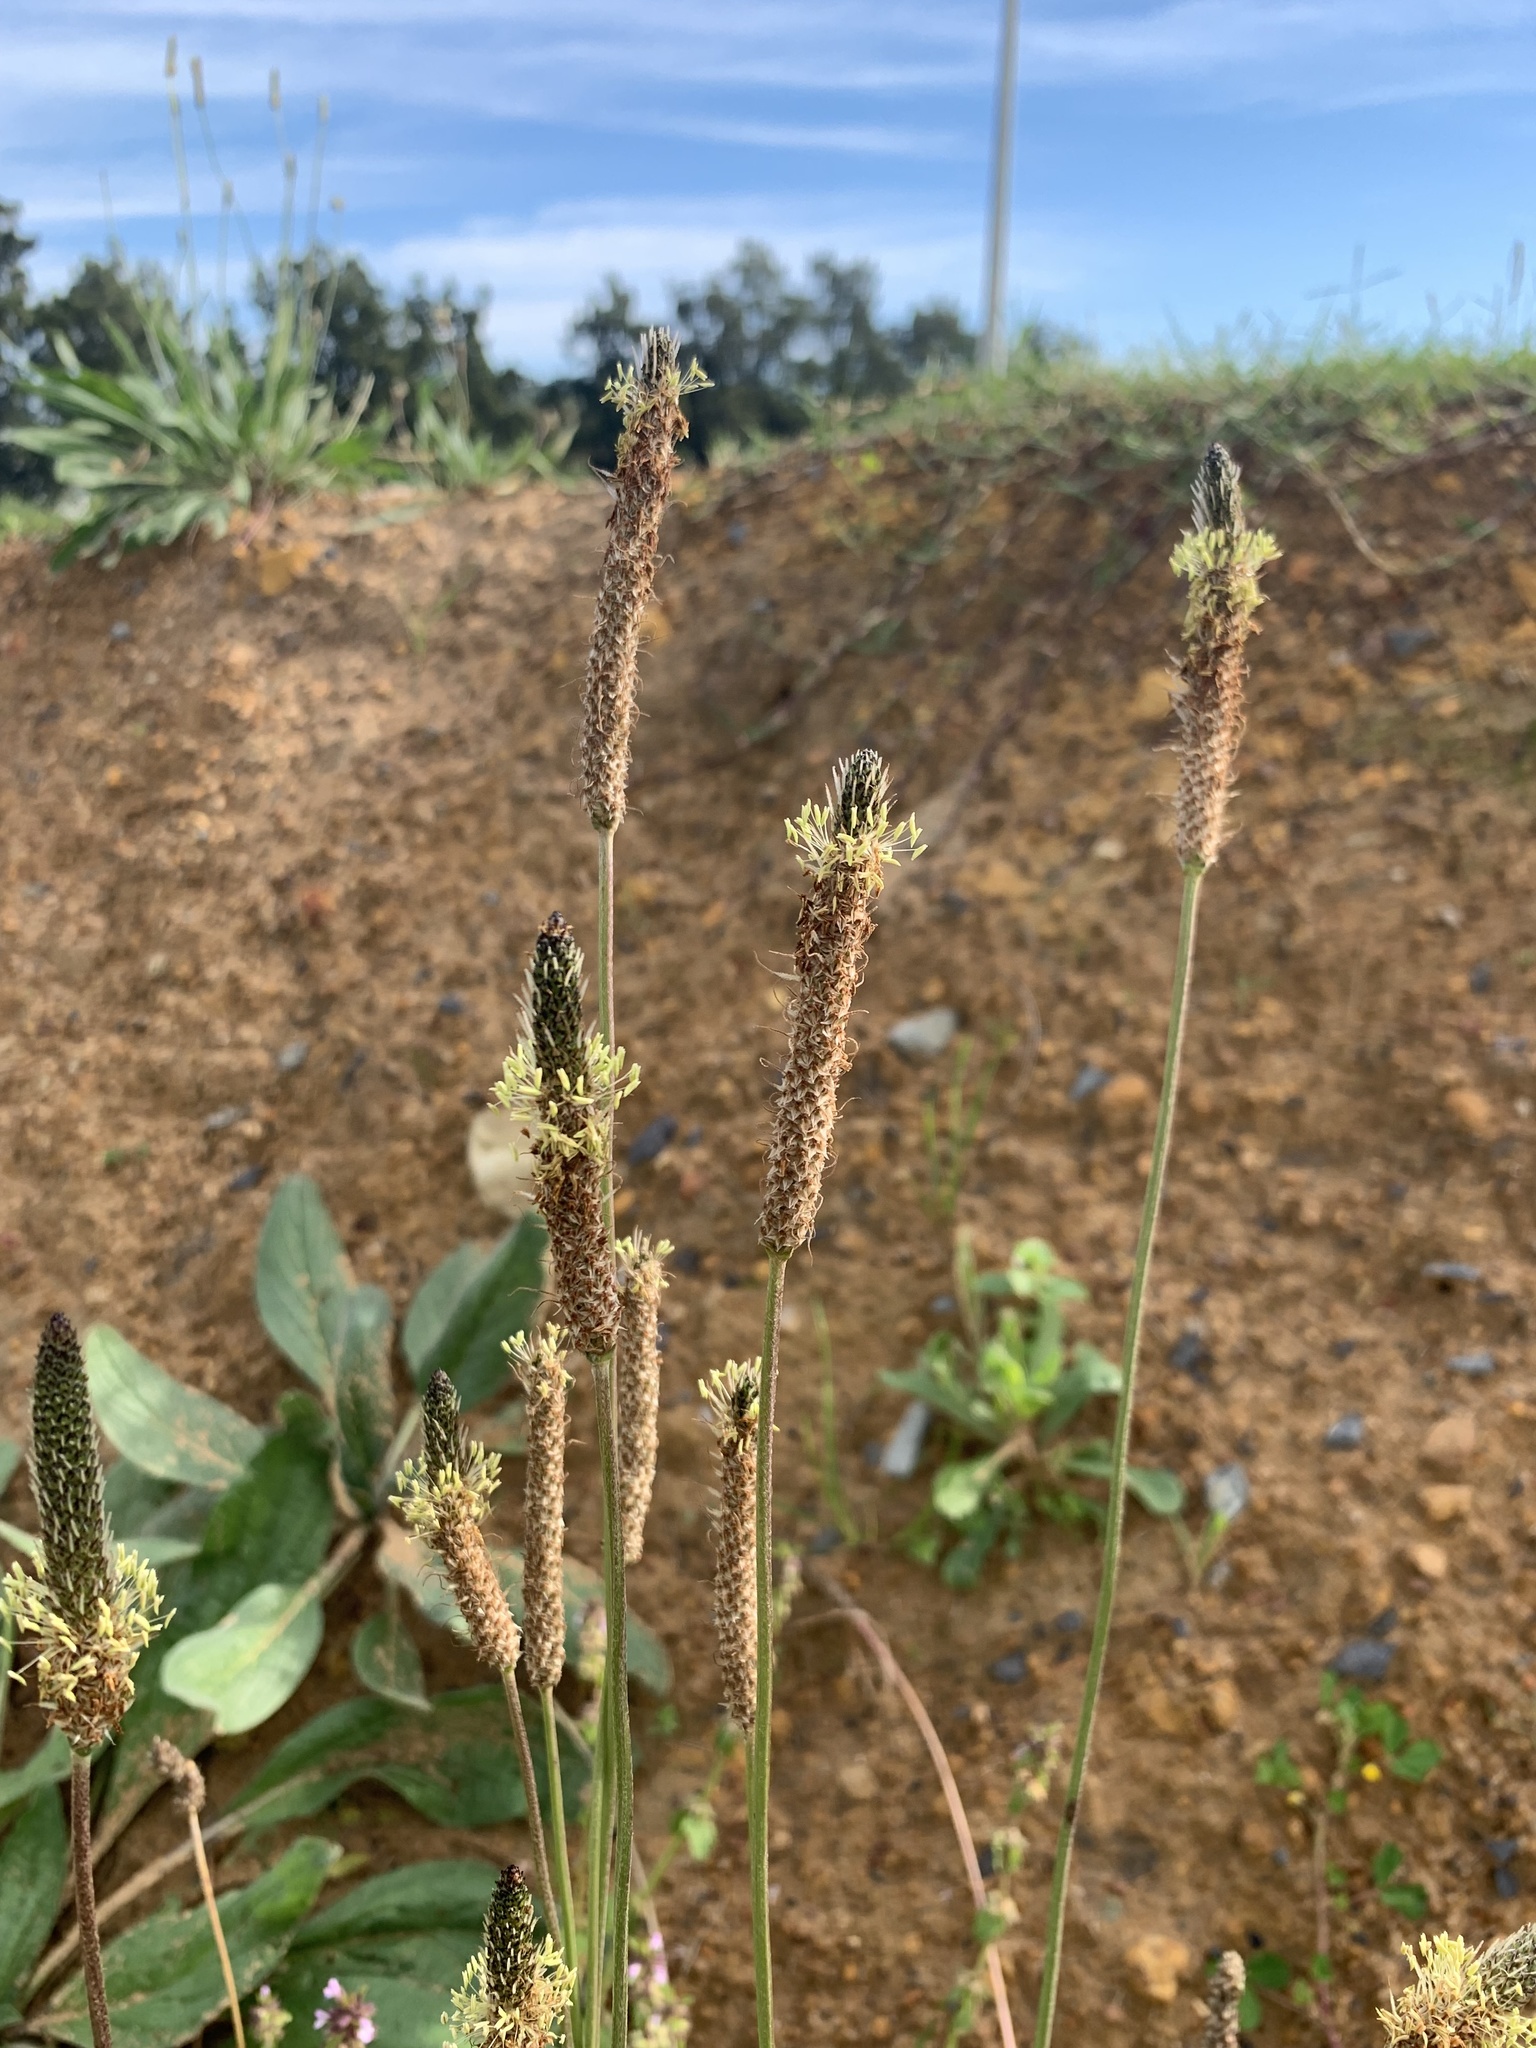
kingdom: Plantae
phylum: Tracheophyta
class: Magnoliopsida
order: Lamiales
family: Plantaginaceae
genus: Plantago
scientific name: Plantago lanceolata
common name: Ribwort plantain
